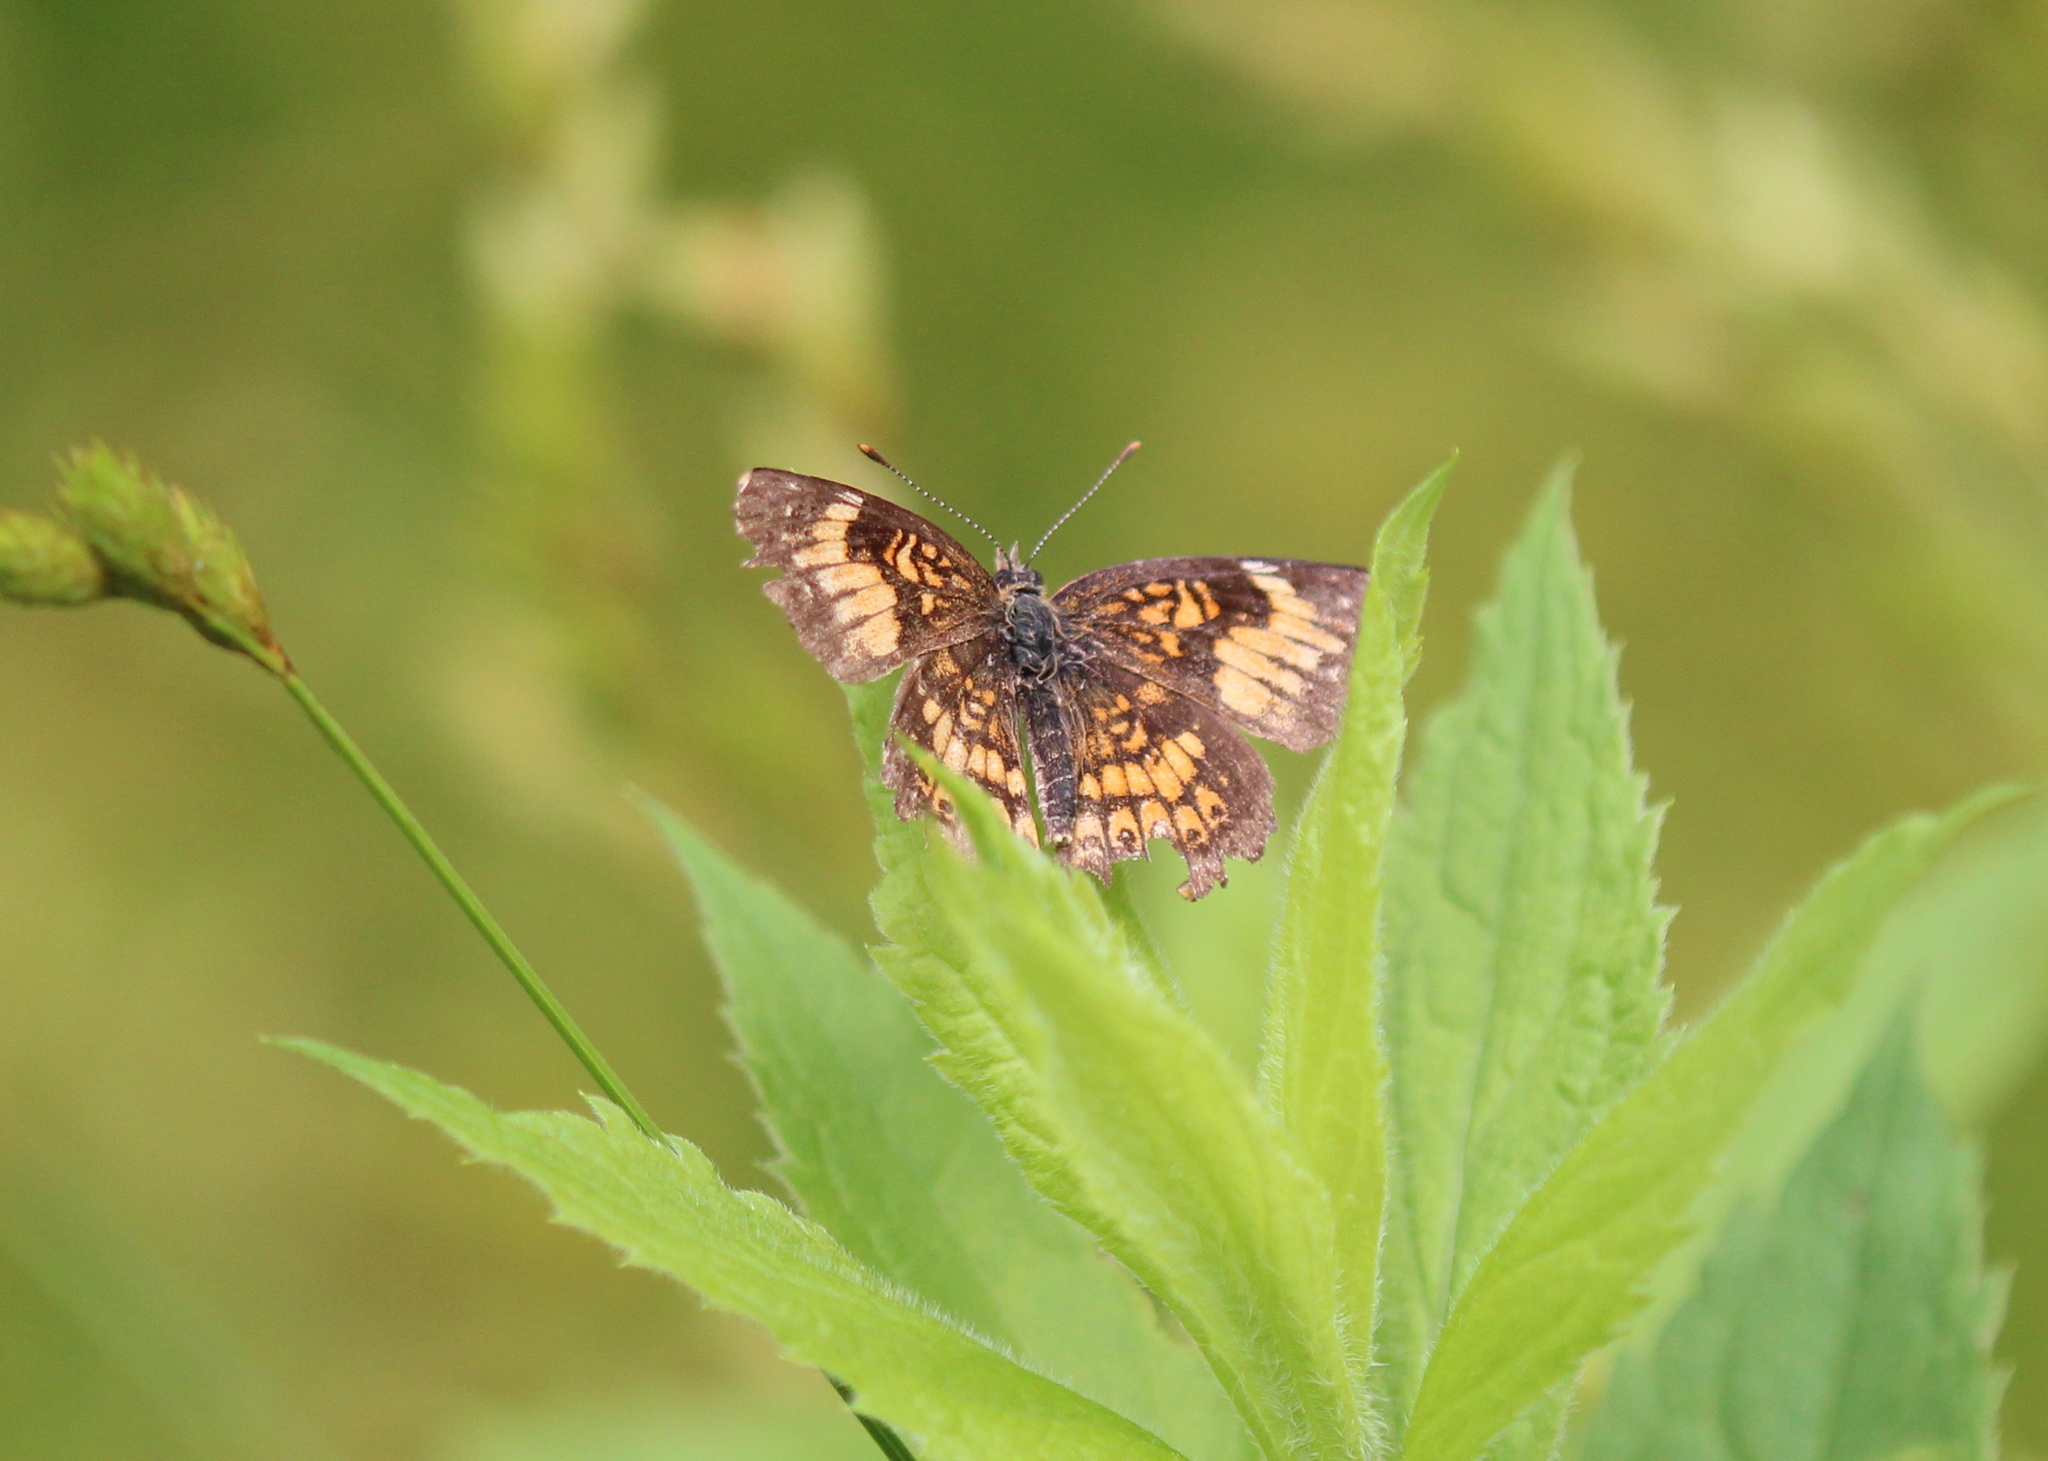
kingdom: Animalia
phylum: Arthropoda
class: Insecta
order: Lepidoptera
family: Nymphalidae
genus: Chlosyne
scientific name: Chlosyne harrisii
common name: Harris's checkerspot
